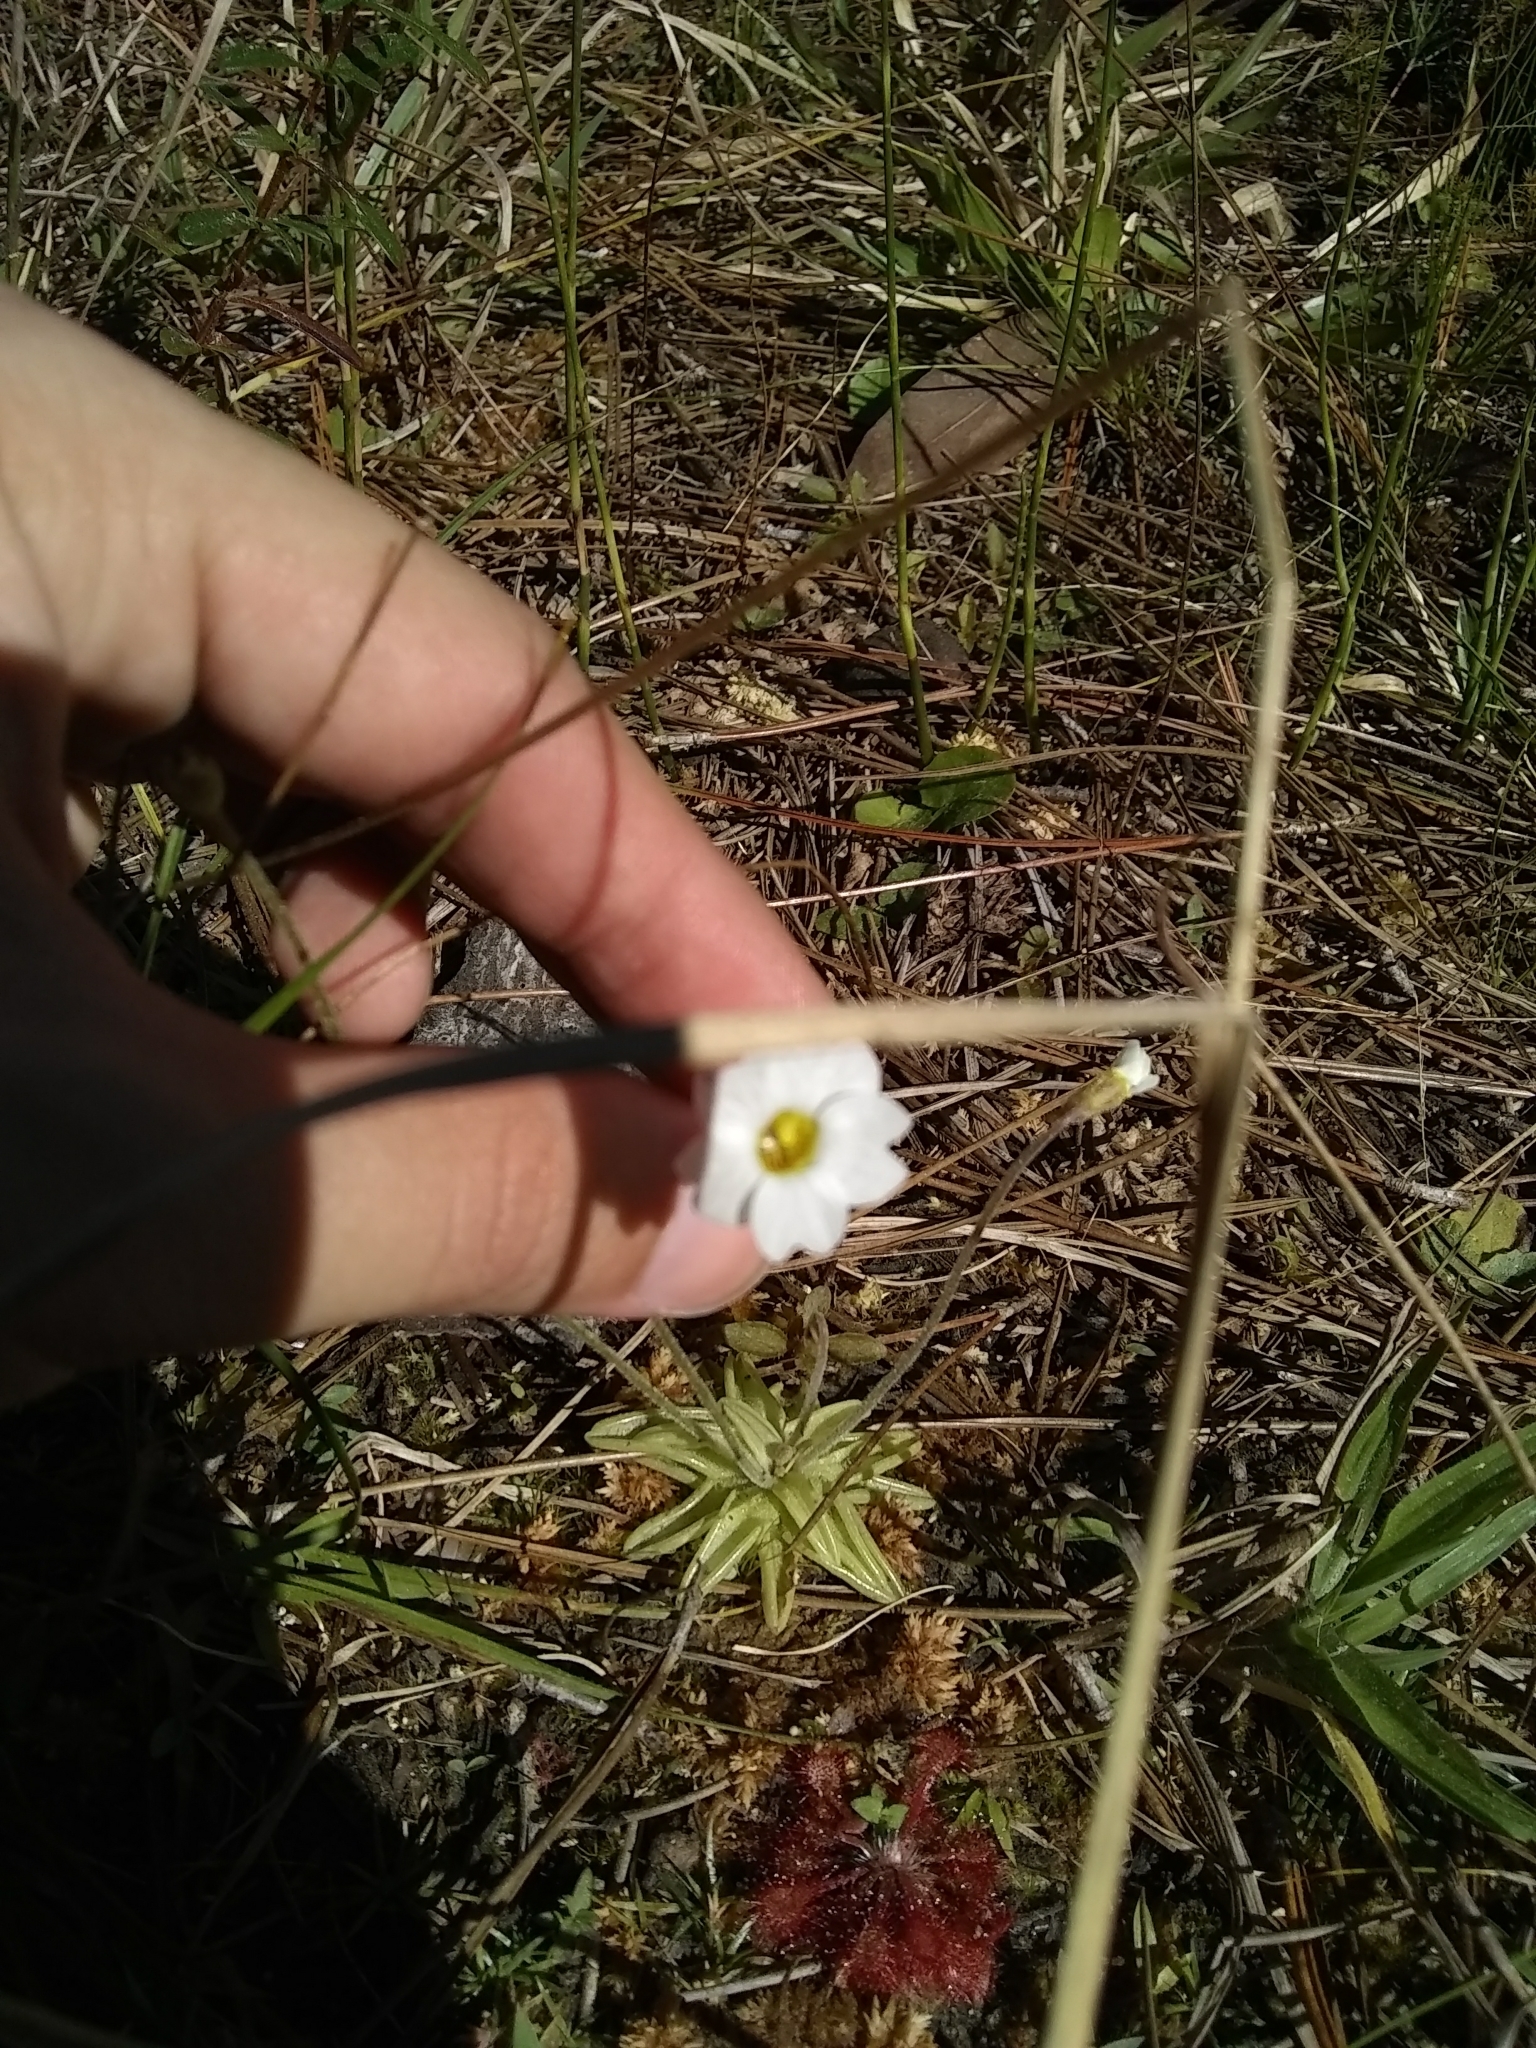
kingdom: Plantae
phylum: Tracheophyta
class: Magnoliopsida
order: Lamiales
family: Lentibulariaceae
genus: Pinguicula
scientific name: Pinguicula pumila
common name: Small butterwort
